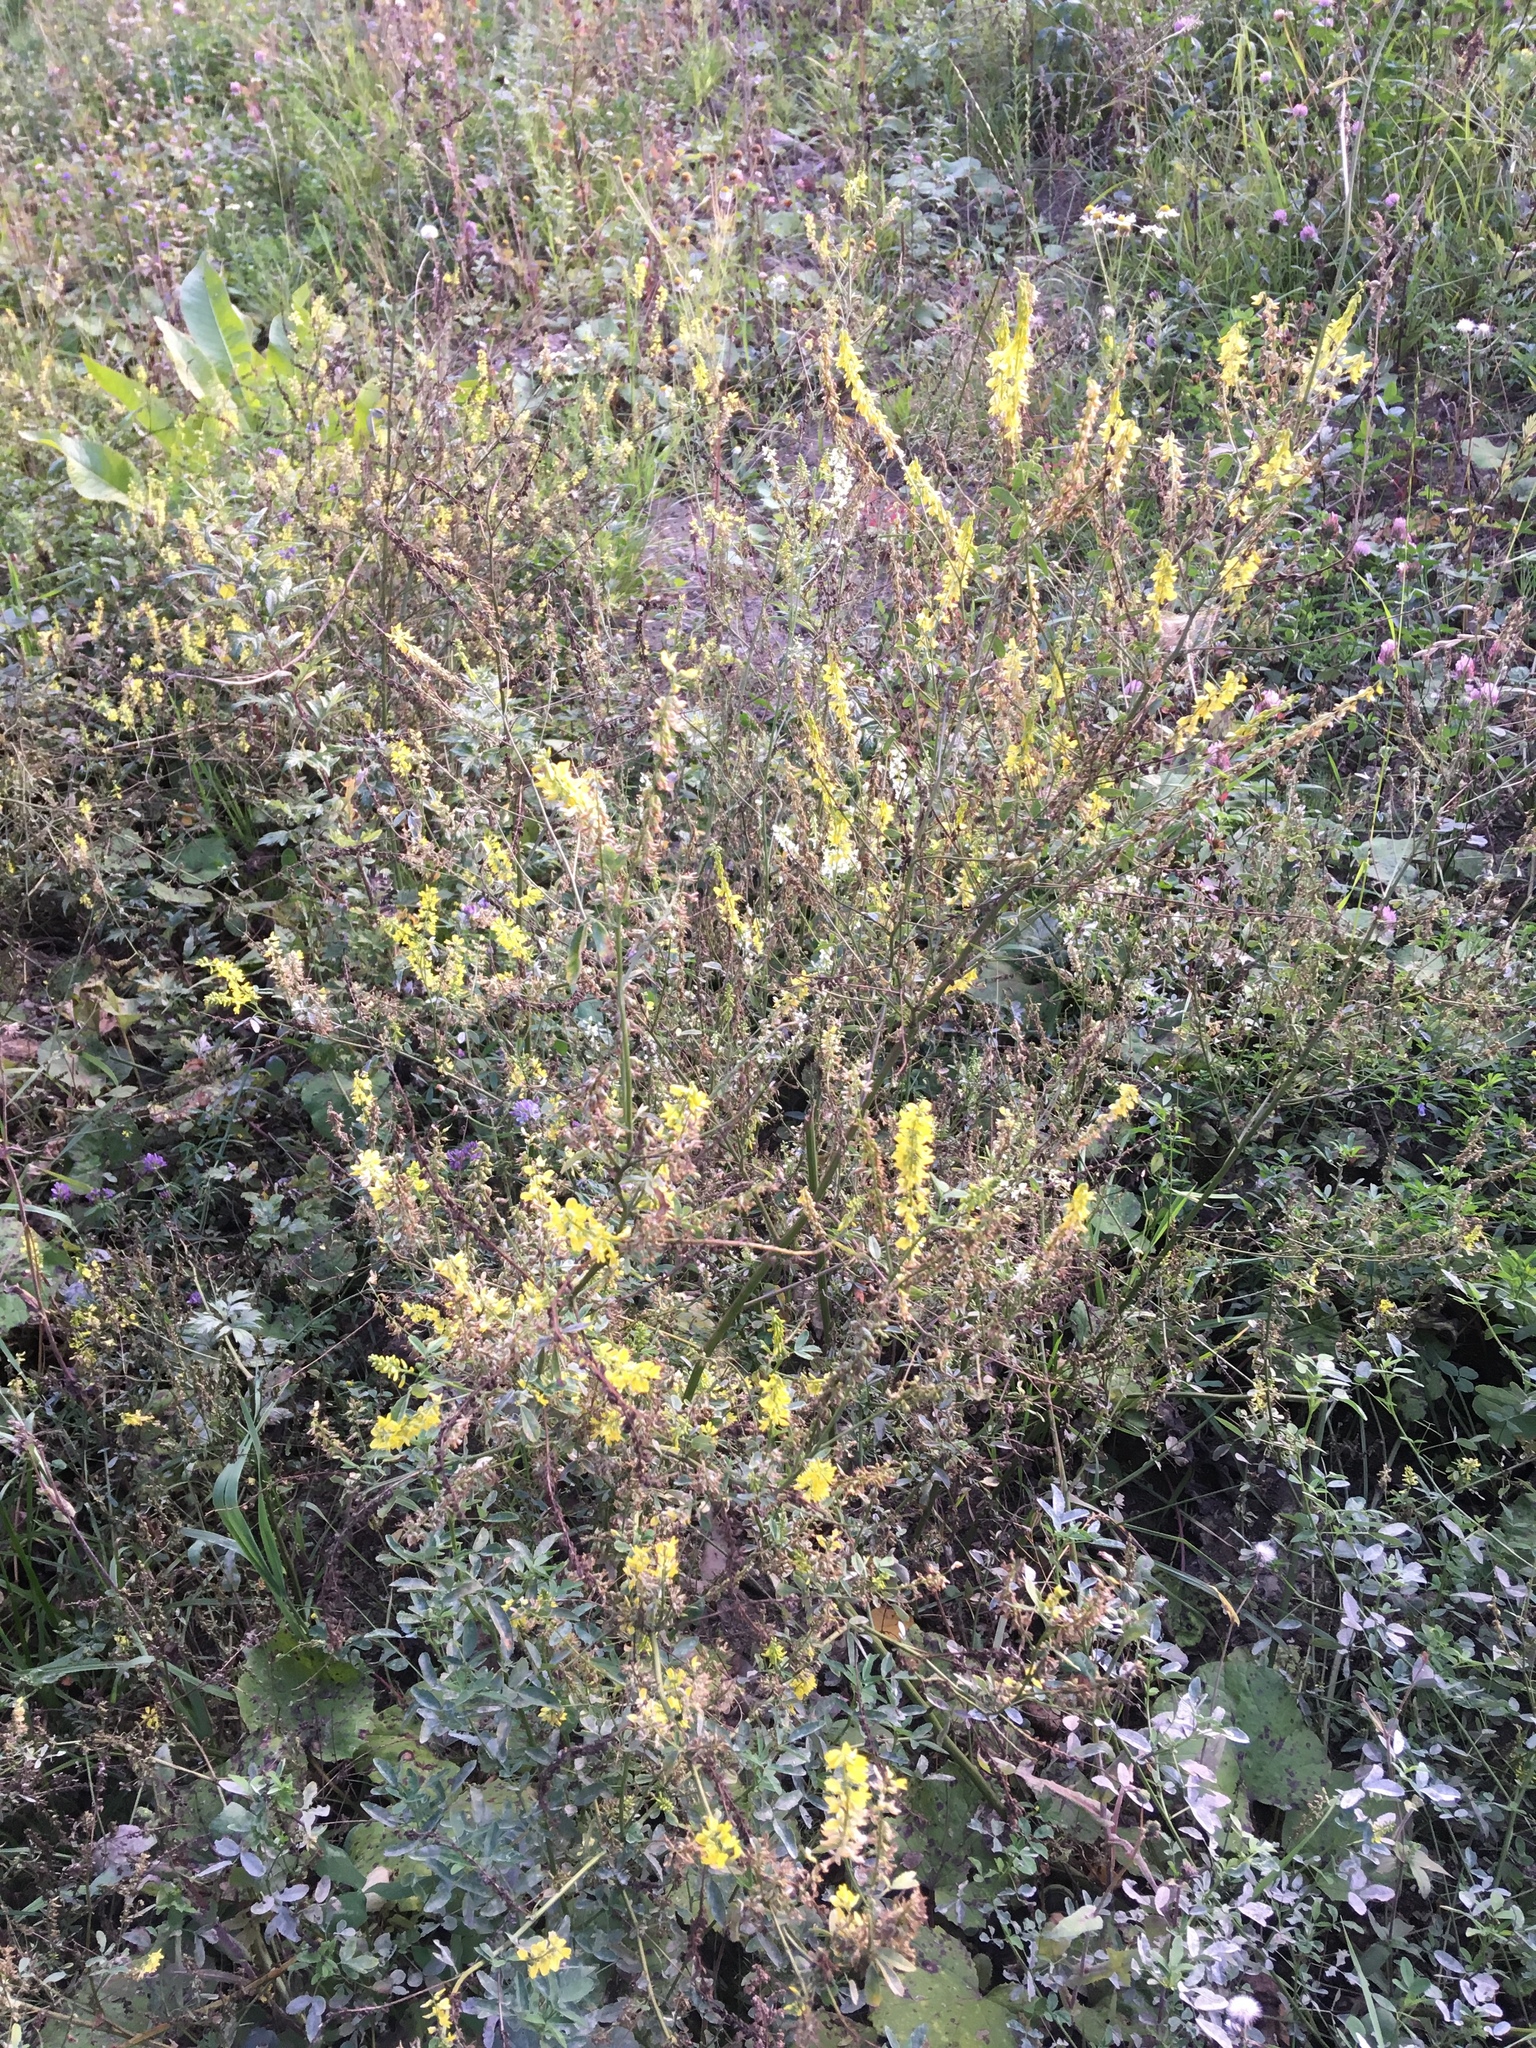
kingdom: Plantae
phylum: Tracheophyta
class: Magnoliopsida
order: Fabales
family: Fabaceae
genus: Melilotus
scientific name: Melilotus officinalis
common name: Sweetclover
